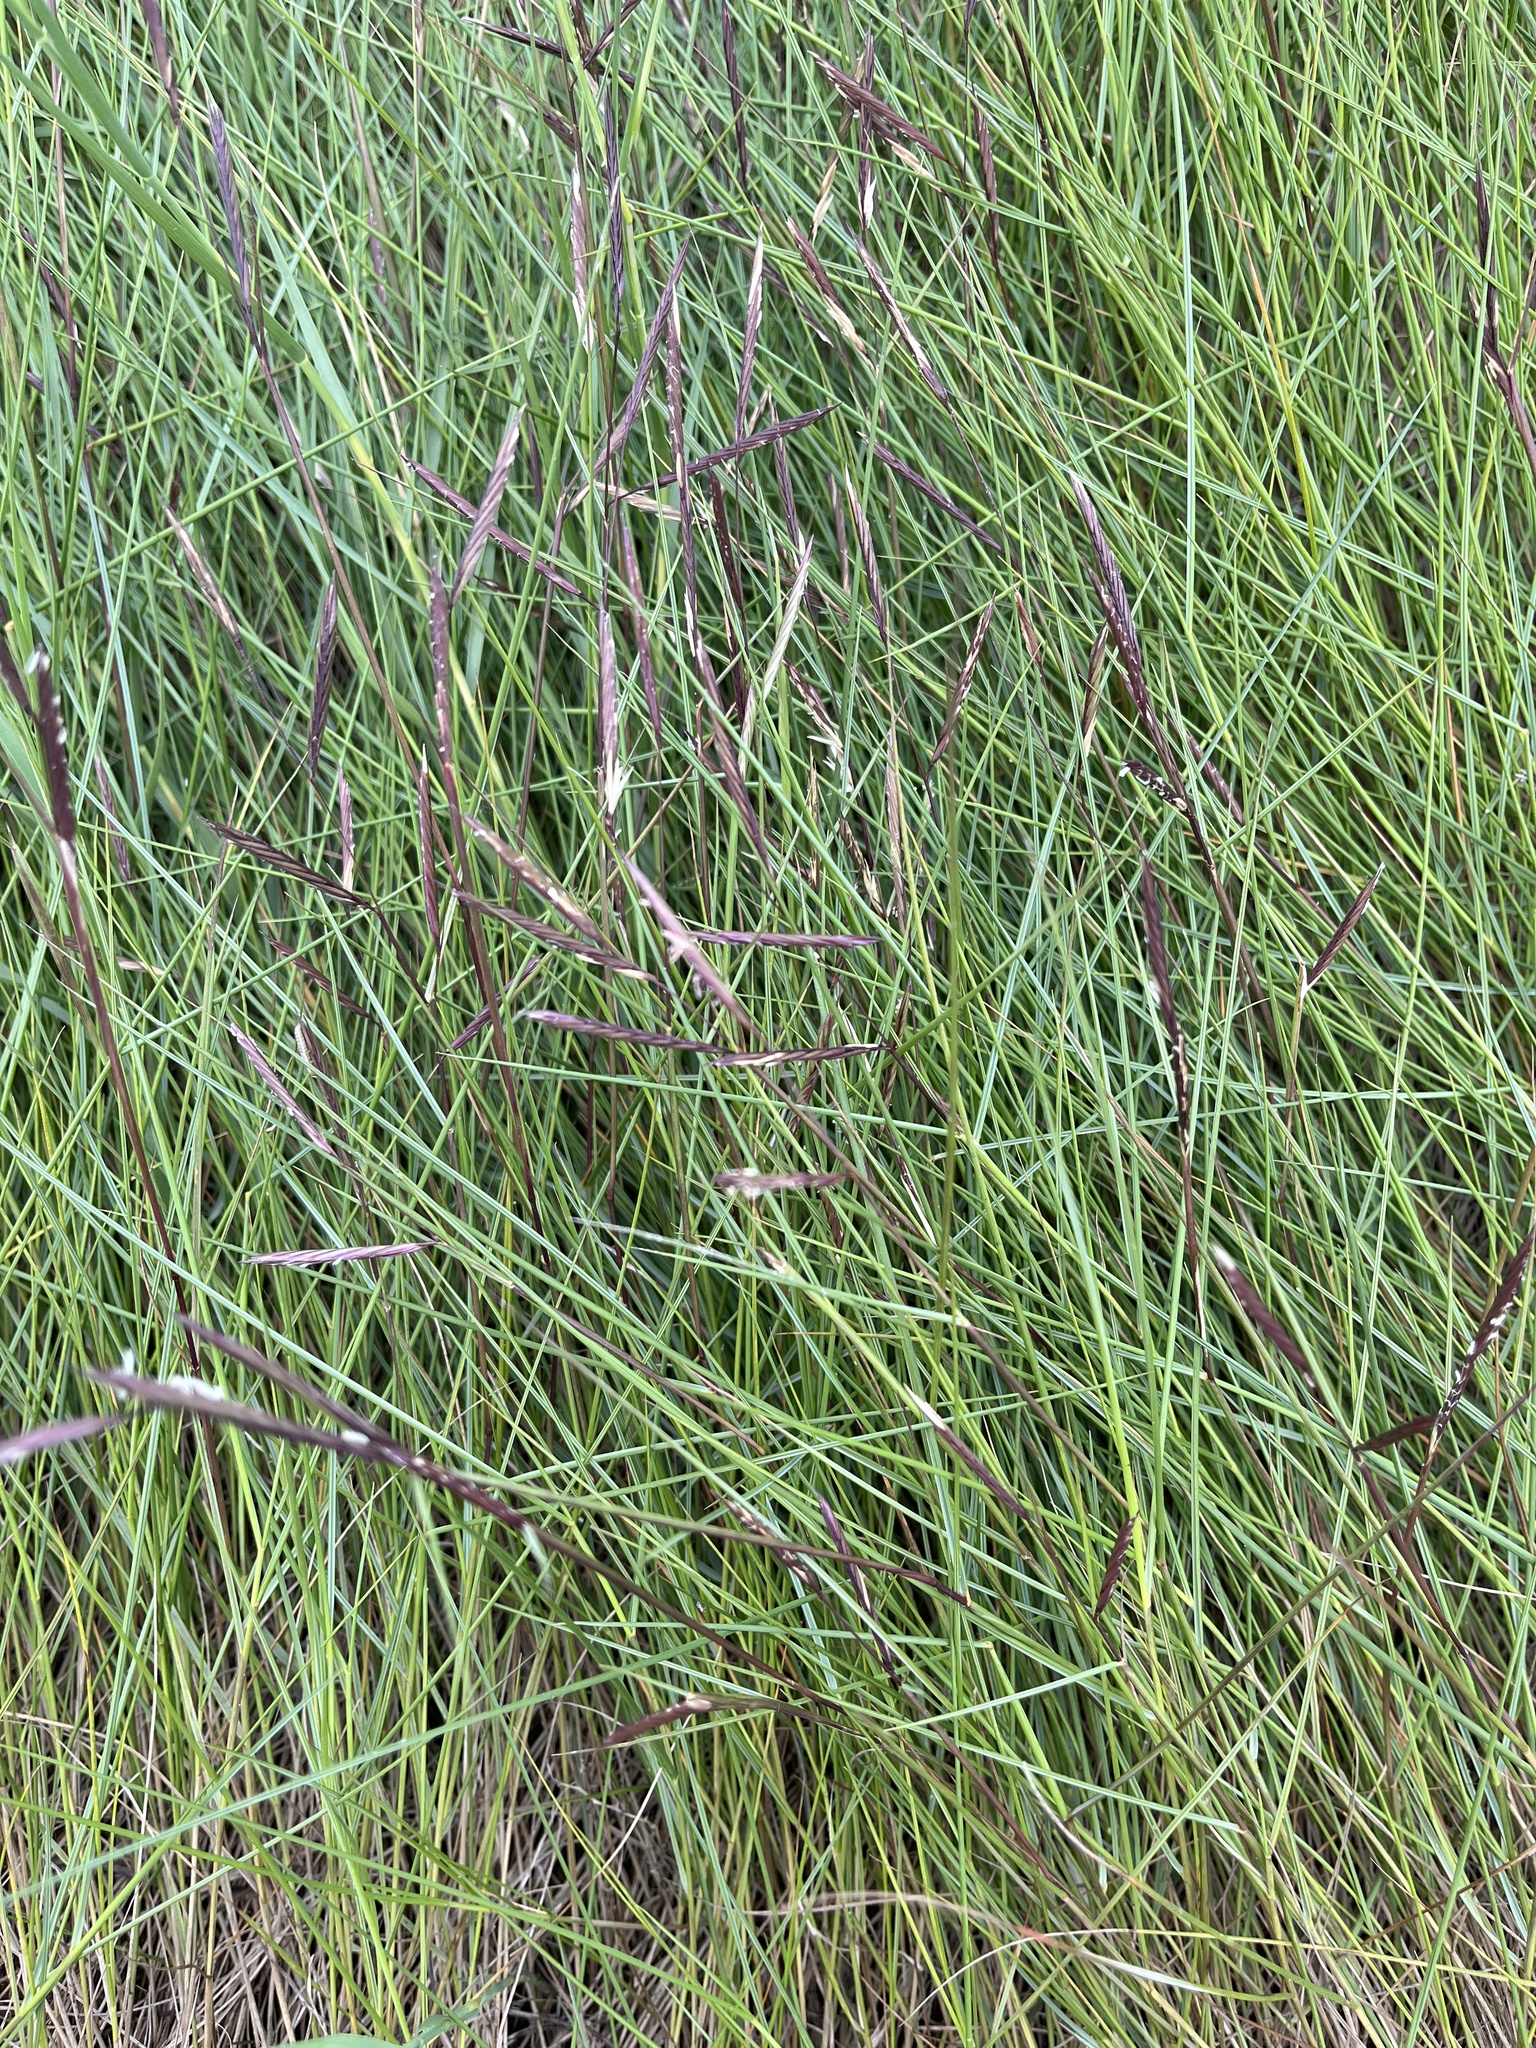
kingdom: Plantae
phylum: Tracheophyta
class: Liliopsida
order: Poales
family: Poaceae
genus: Sporobolus
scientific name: Sporobolus pumilus
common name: Highwater grass
